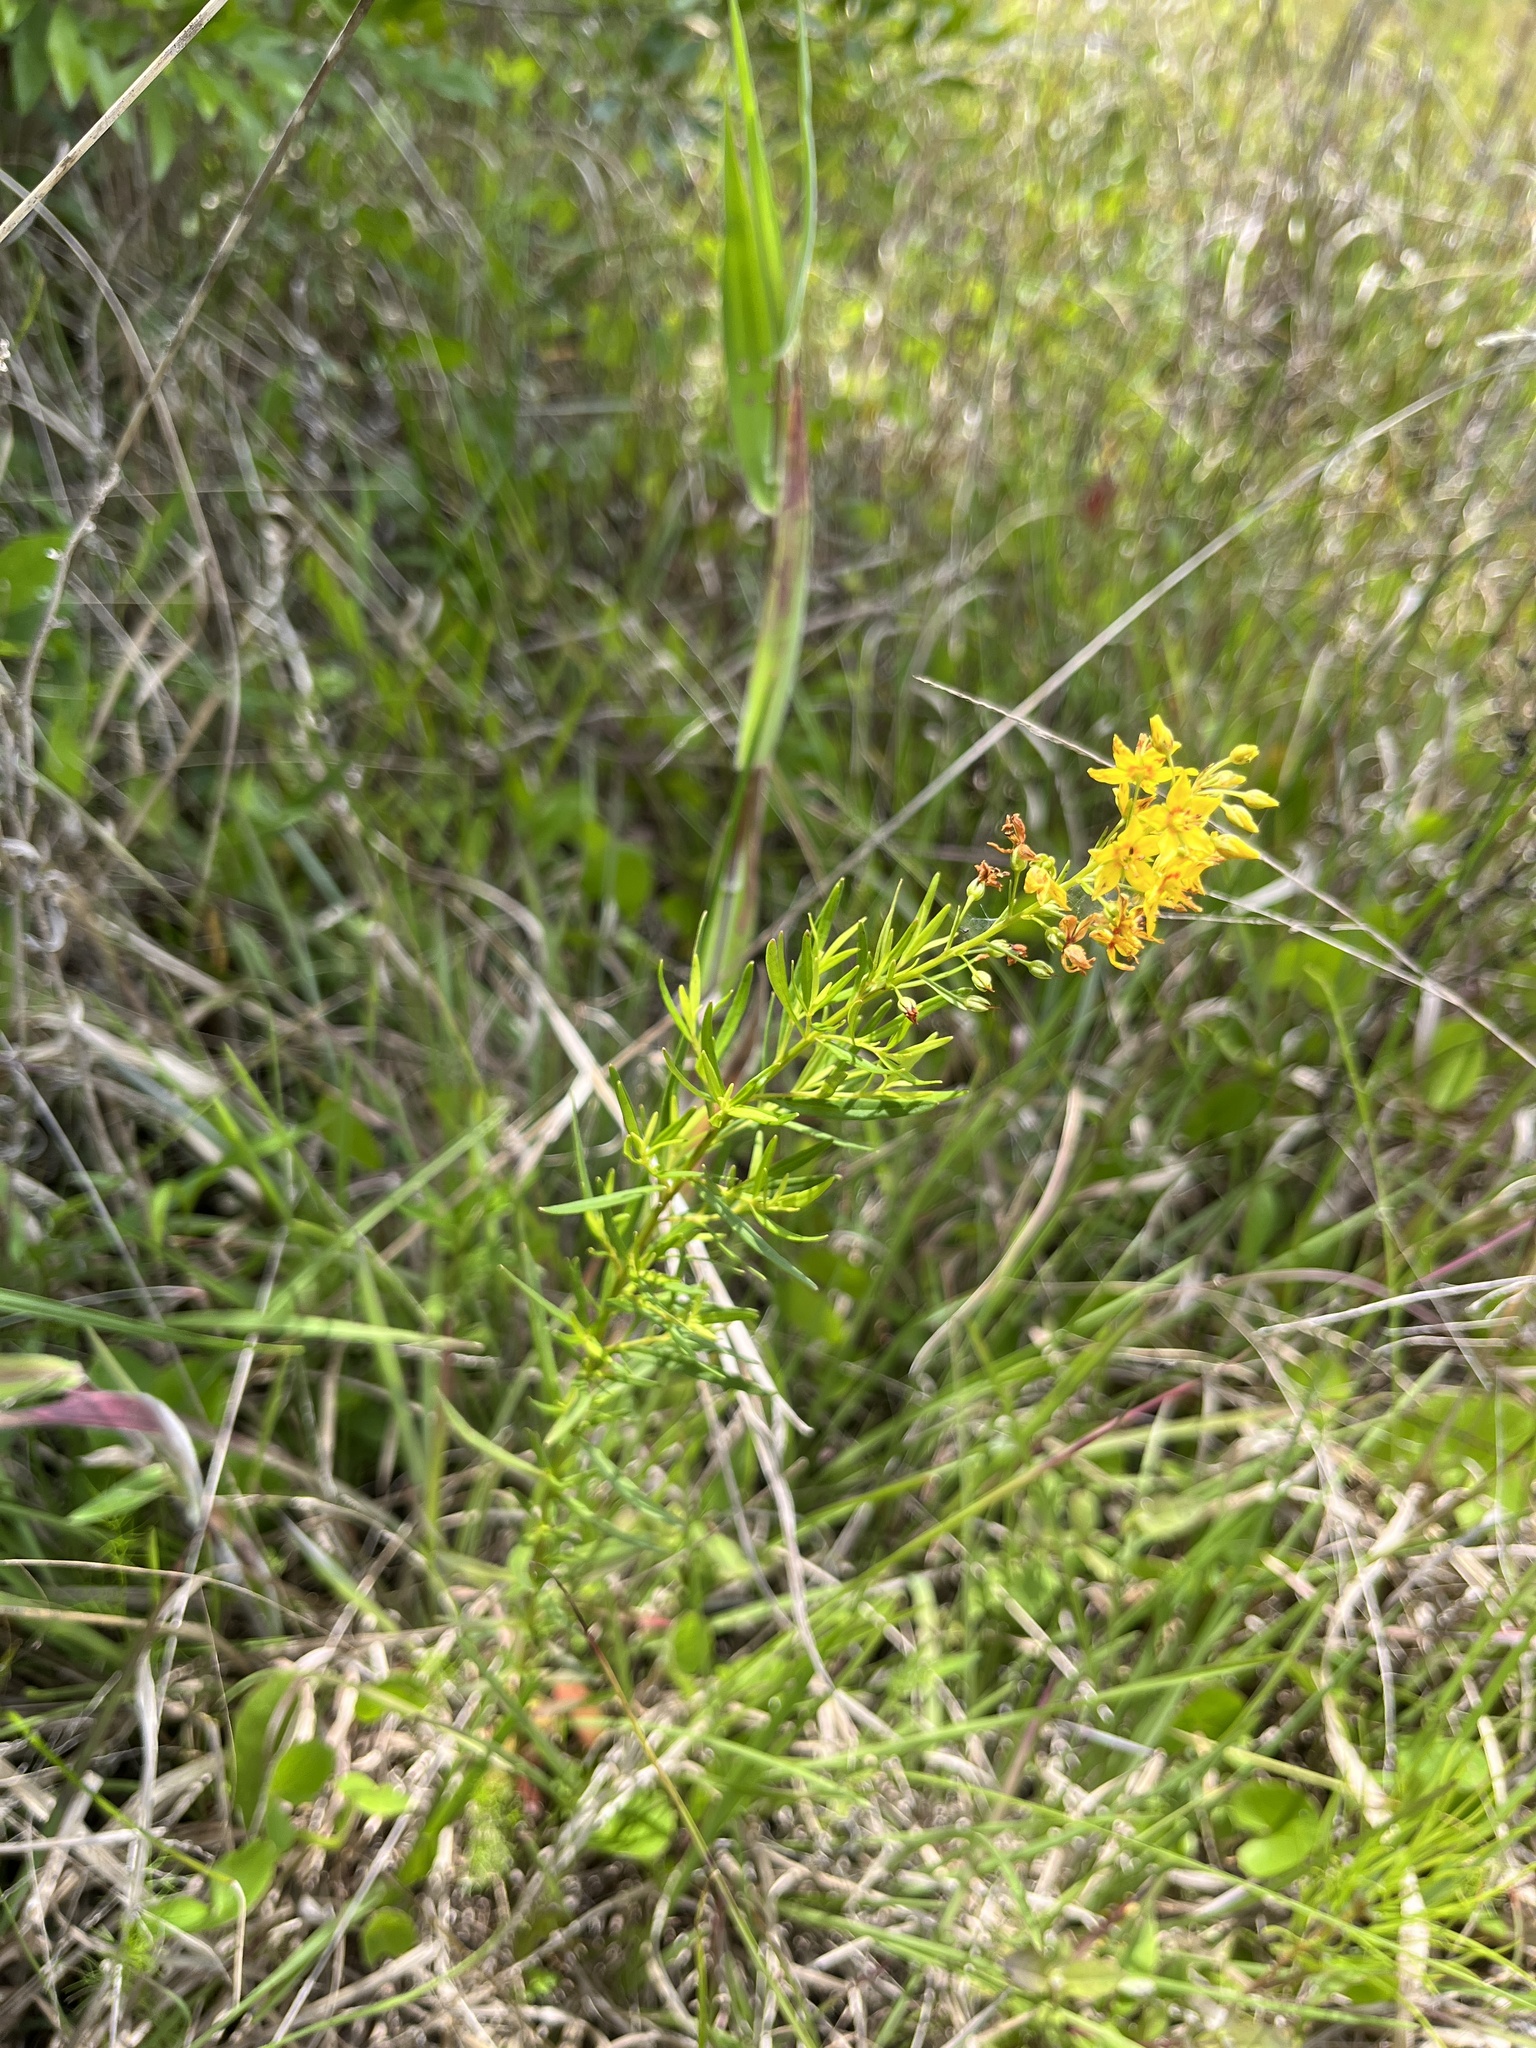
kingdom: Plantae
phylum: Tracheophyta
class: Magnoliopsida
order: Ericales
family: Primulaceae
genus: Lysimachia
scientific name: Lysimachia terrestris
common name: Lake loosestrife
